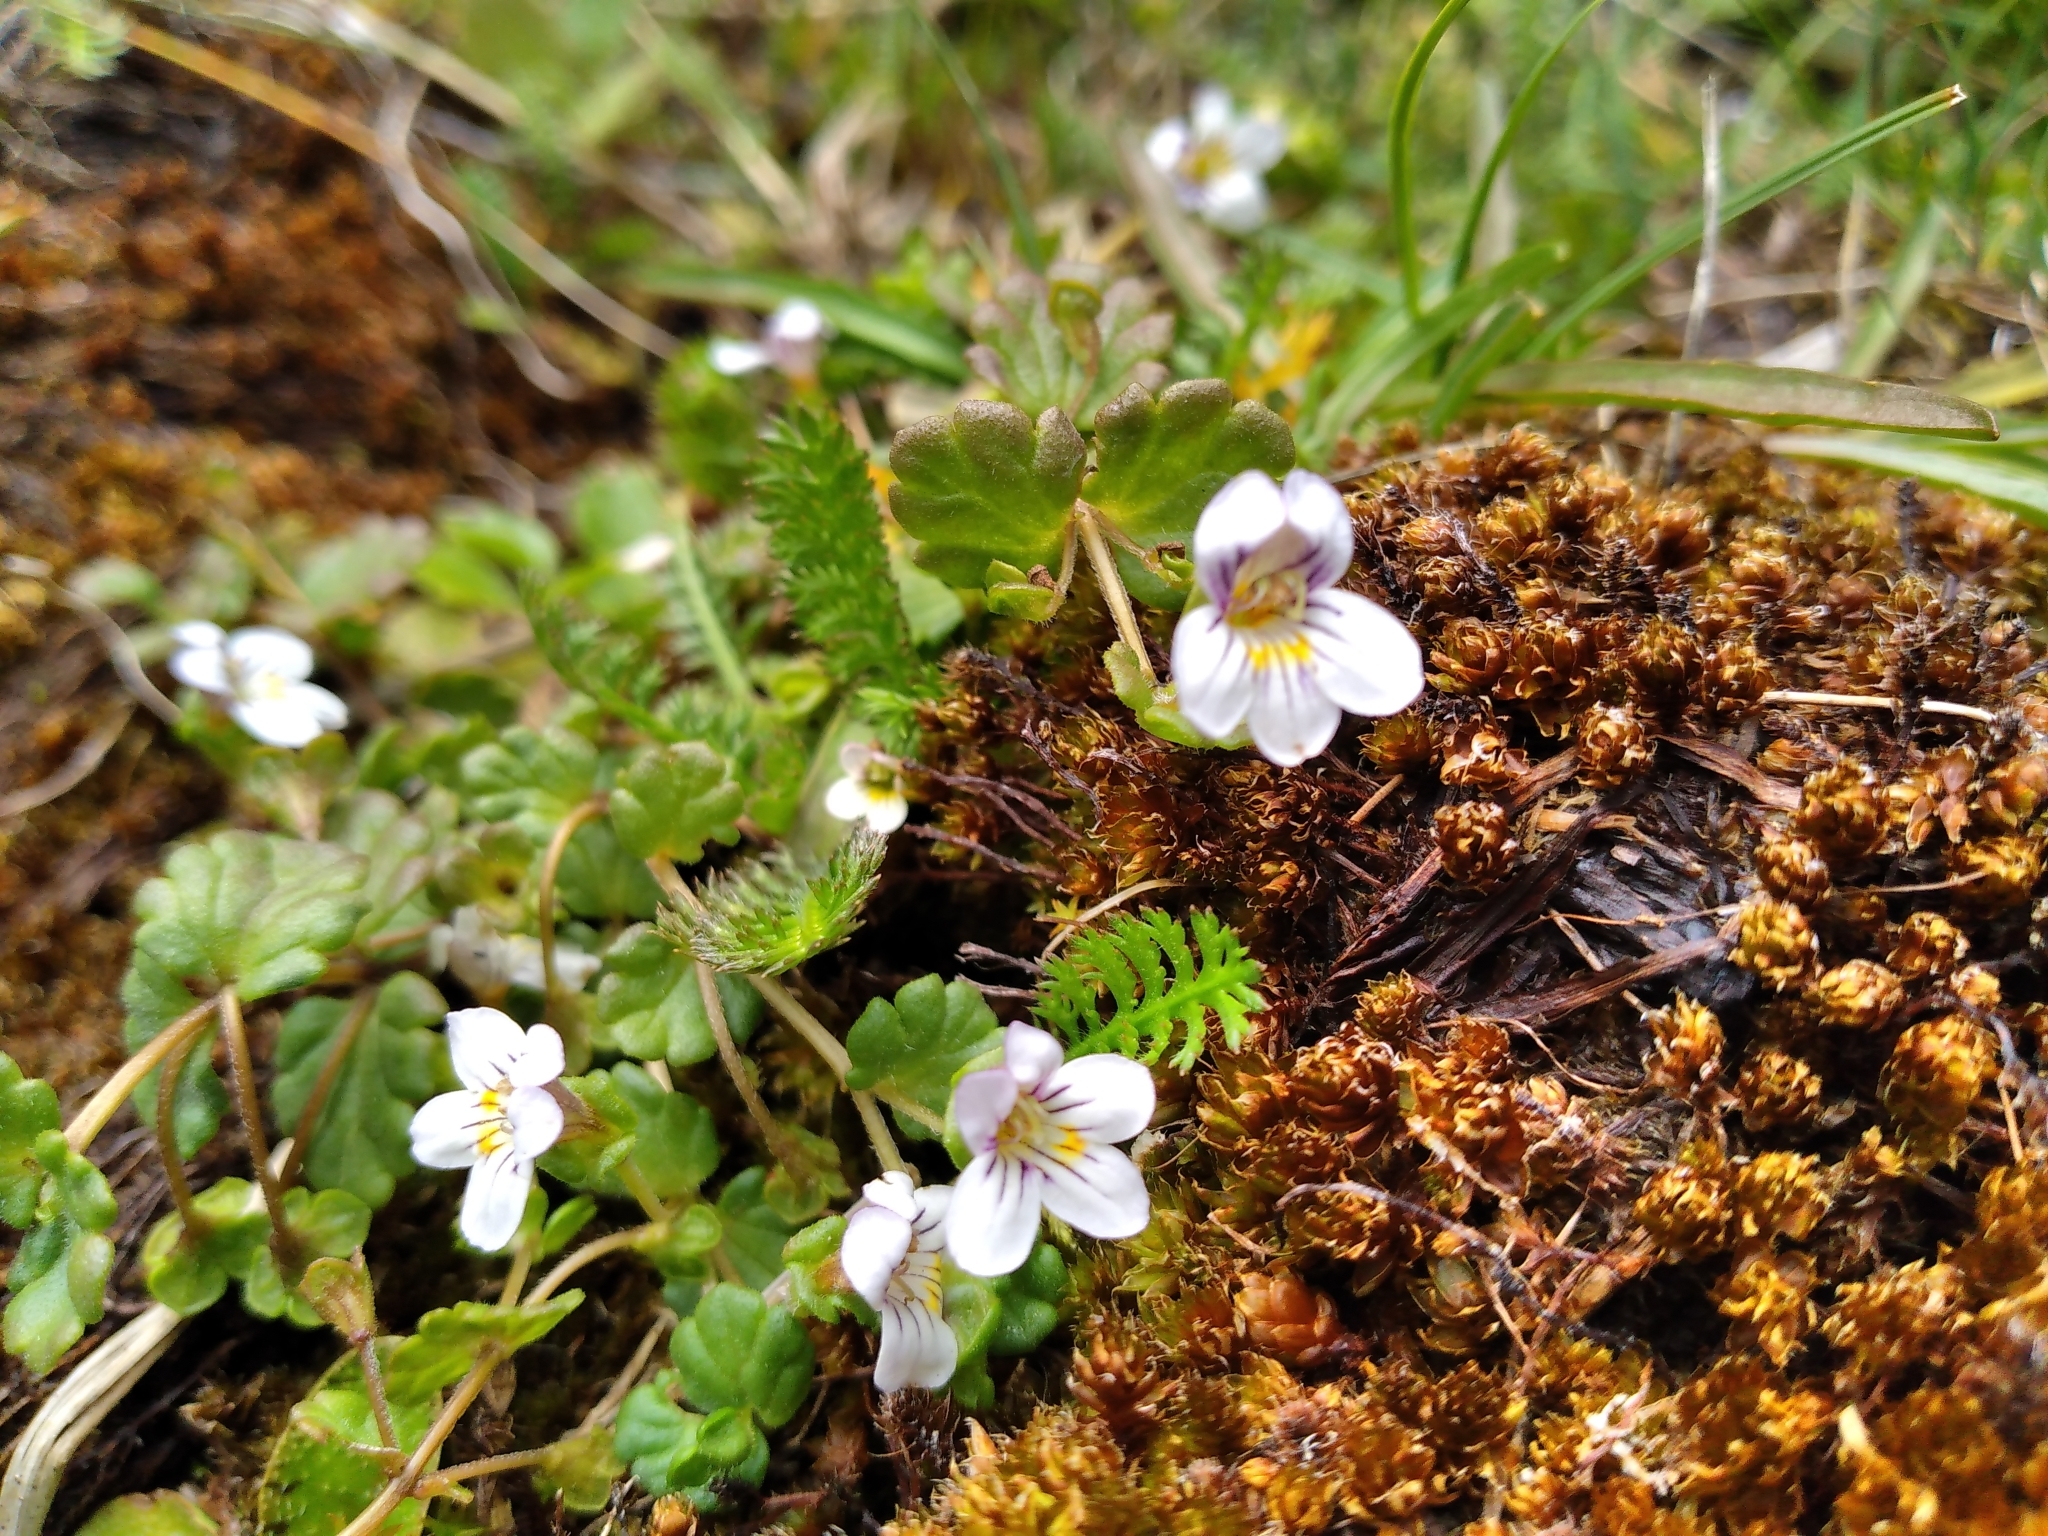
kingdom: Plantae
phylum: Tracheophyta
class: Magnoliopsida
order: Lamiales
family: Orobanchaceae
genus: Euphrasia
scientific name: Euphrasia cheesemanii
